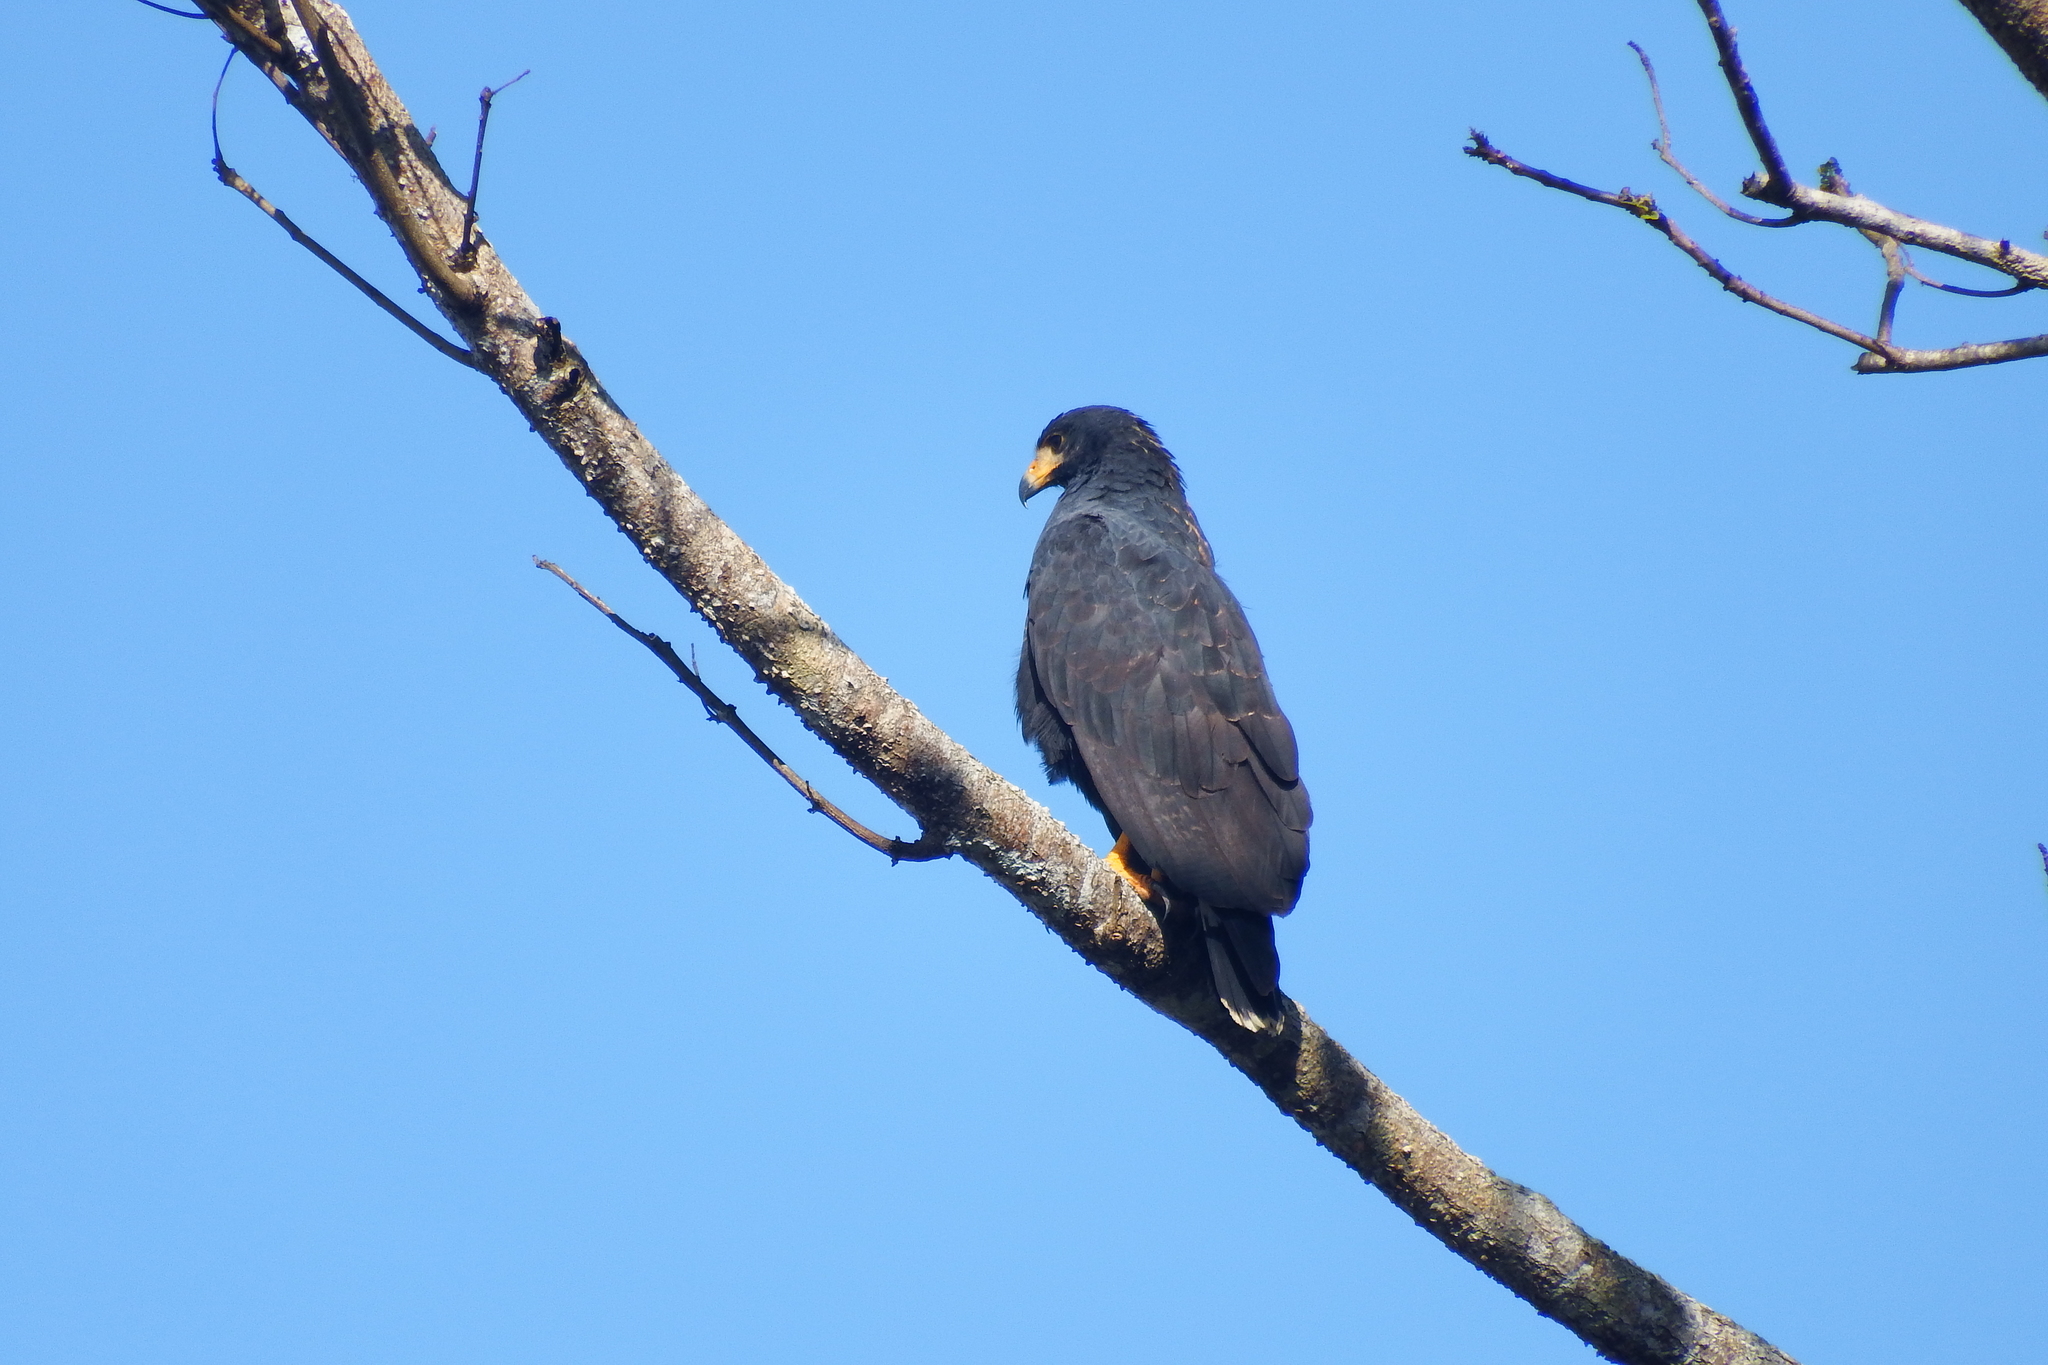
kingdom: Animalia
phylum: Chordata
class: Aves
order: Accipitriformes
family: Accipitridae
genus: Buteogallus
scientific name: Buteogallus anthracinus
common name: Common black hawk
